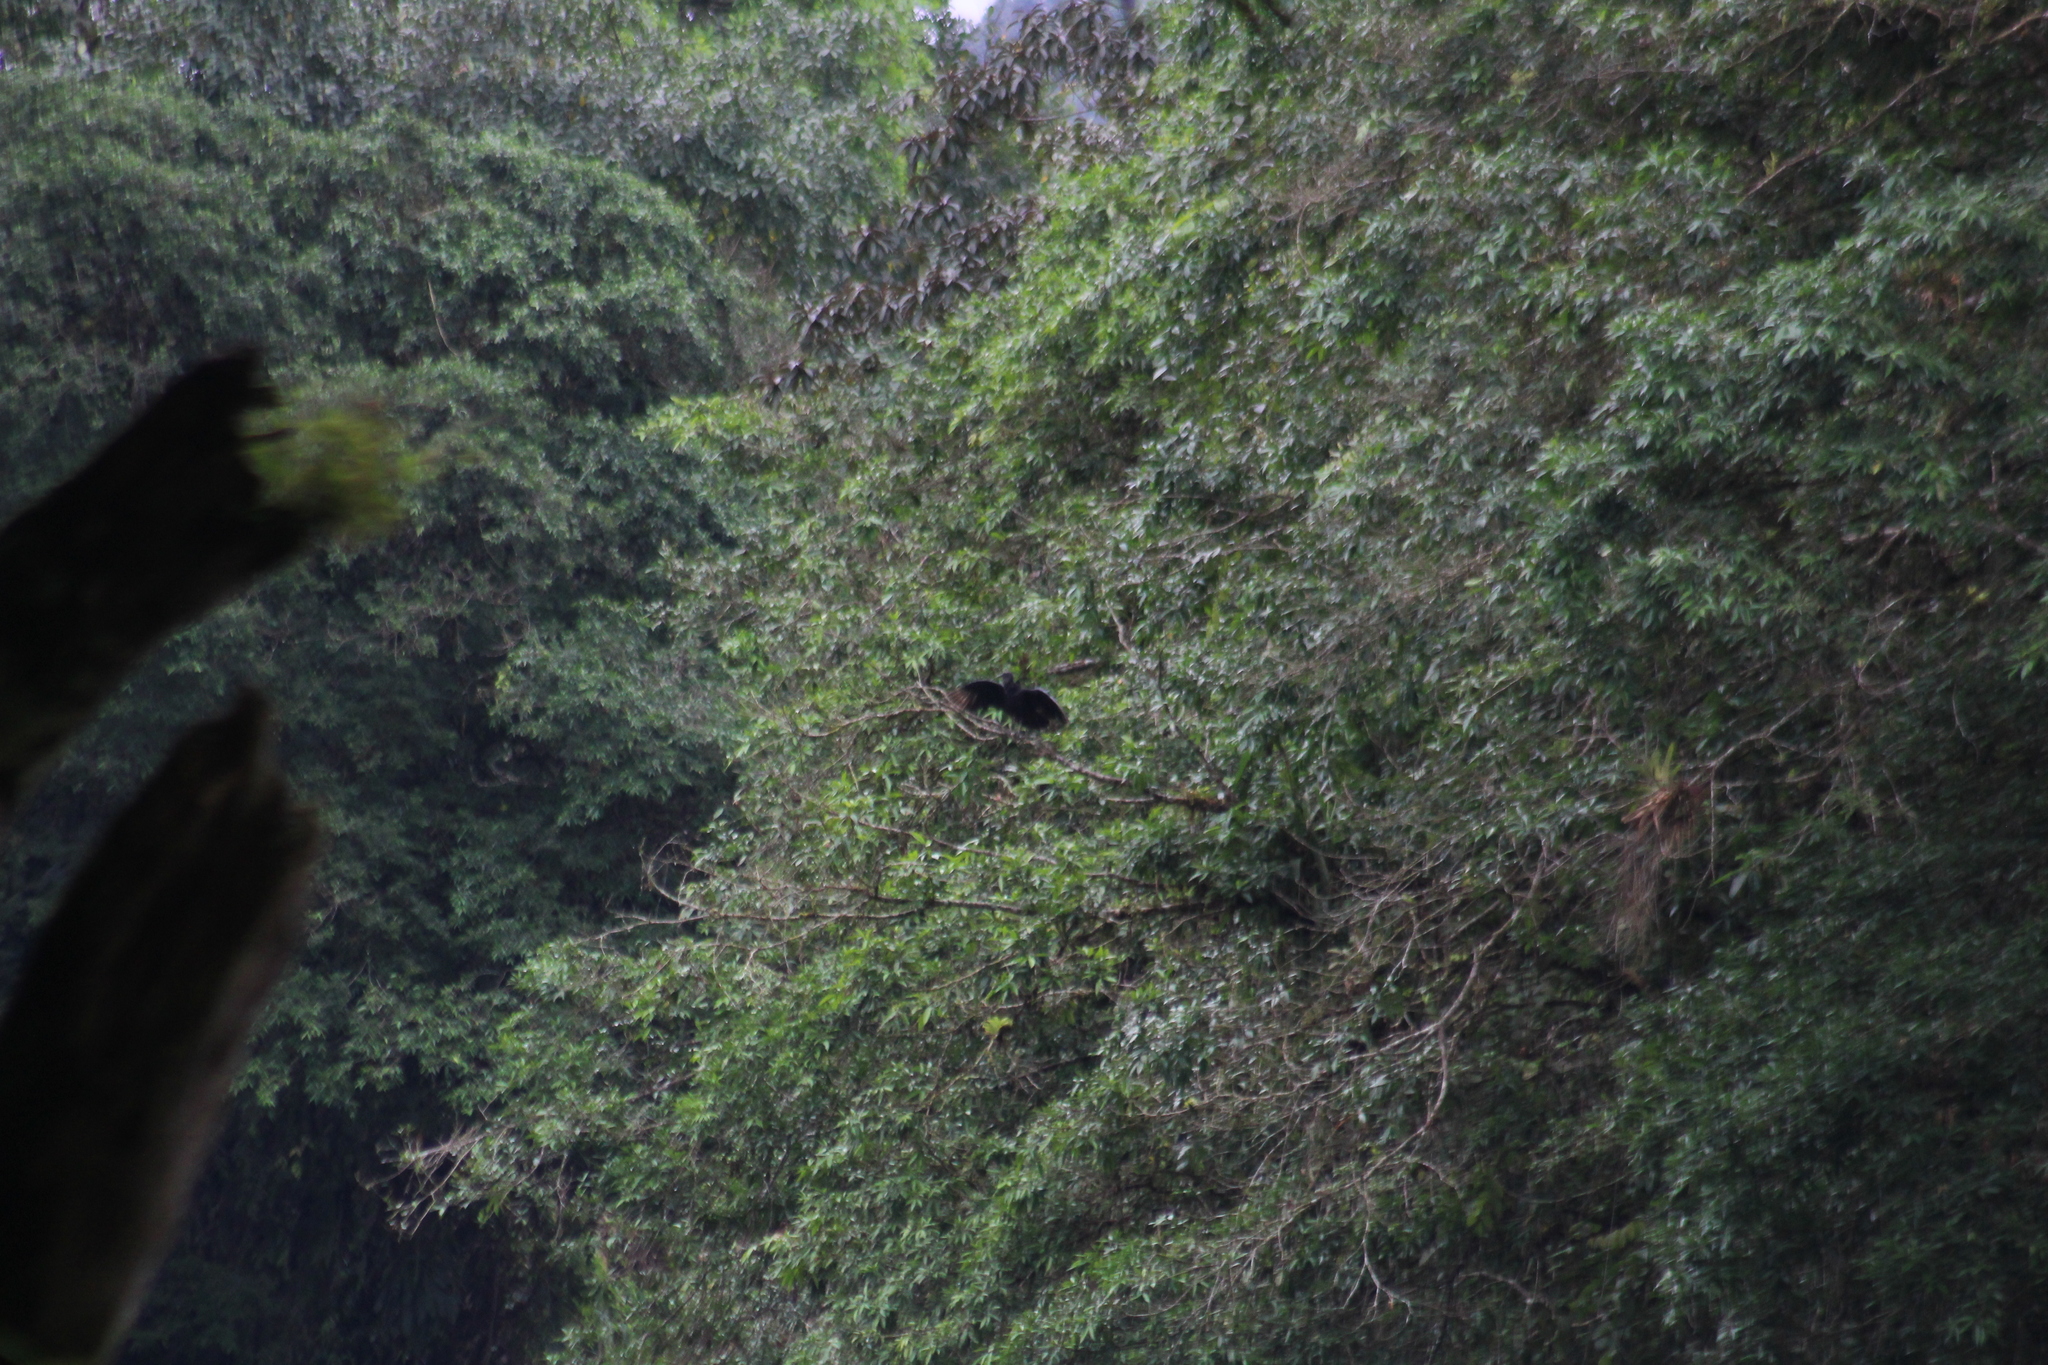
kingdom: Animalia
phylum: Chordata
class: Aves
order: Accipitriformes
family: Cathartidae
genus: Coragyps
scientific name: Coragyps atratus
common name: Black vulture
